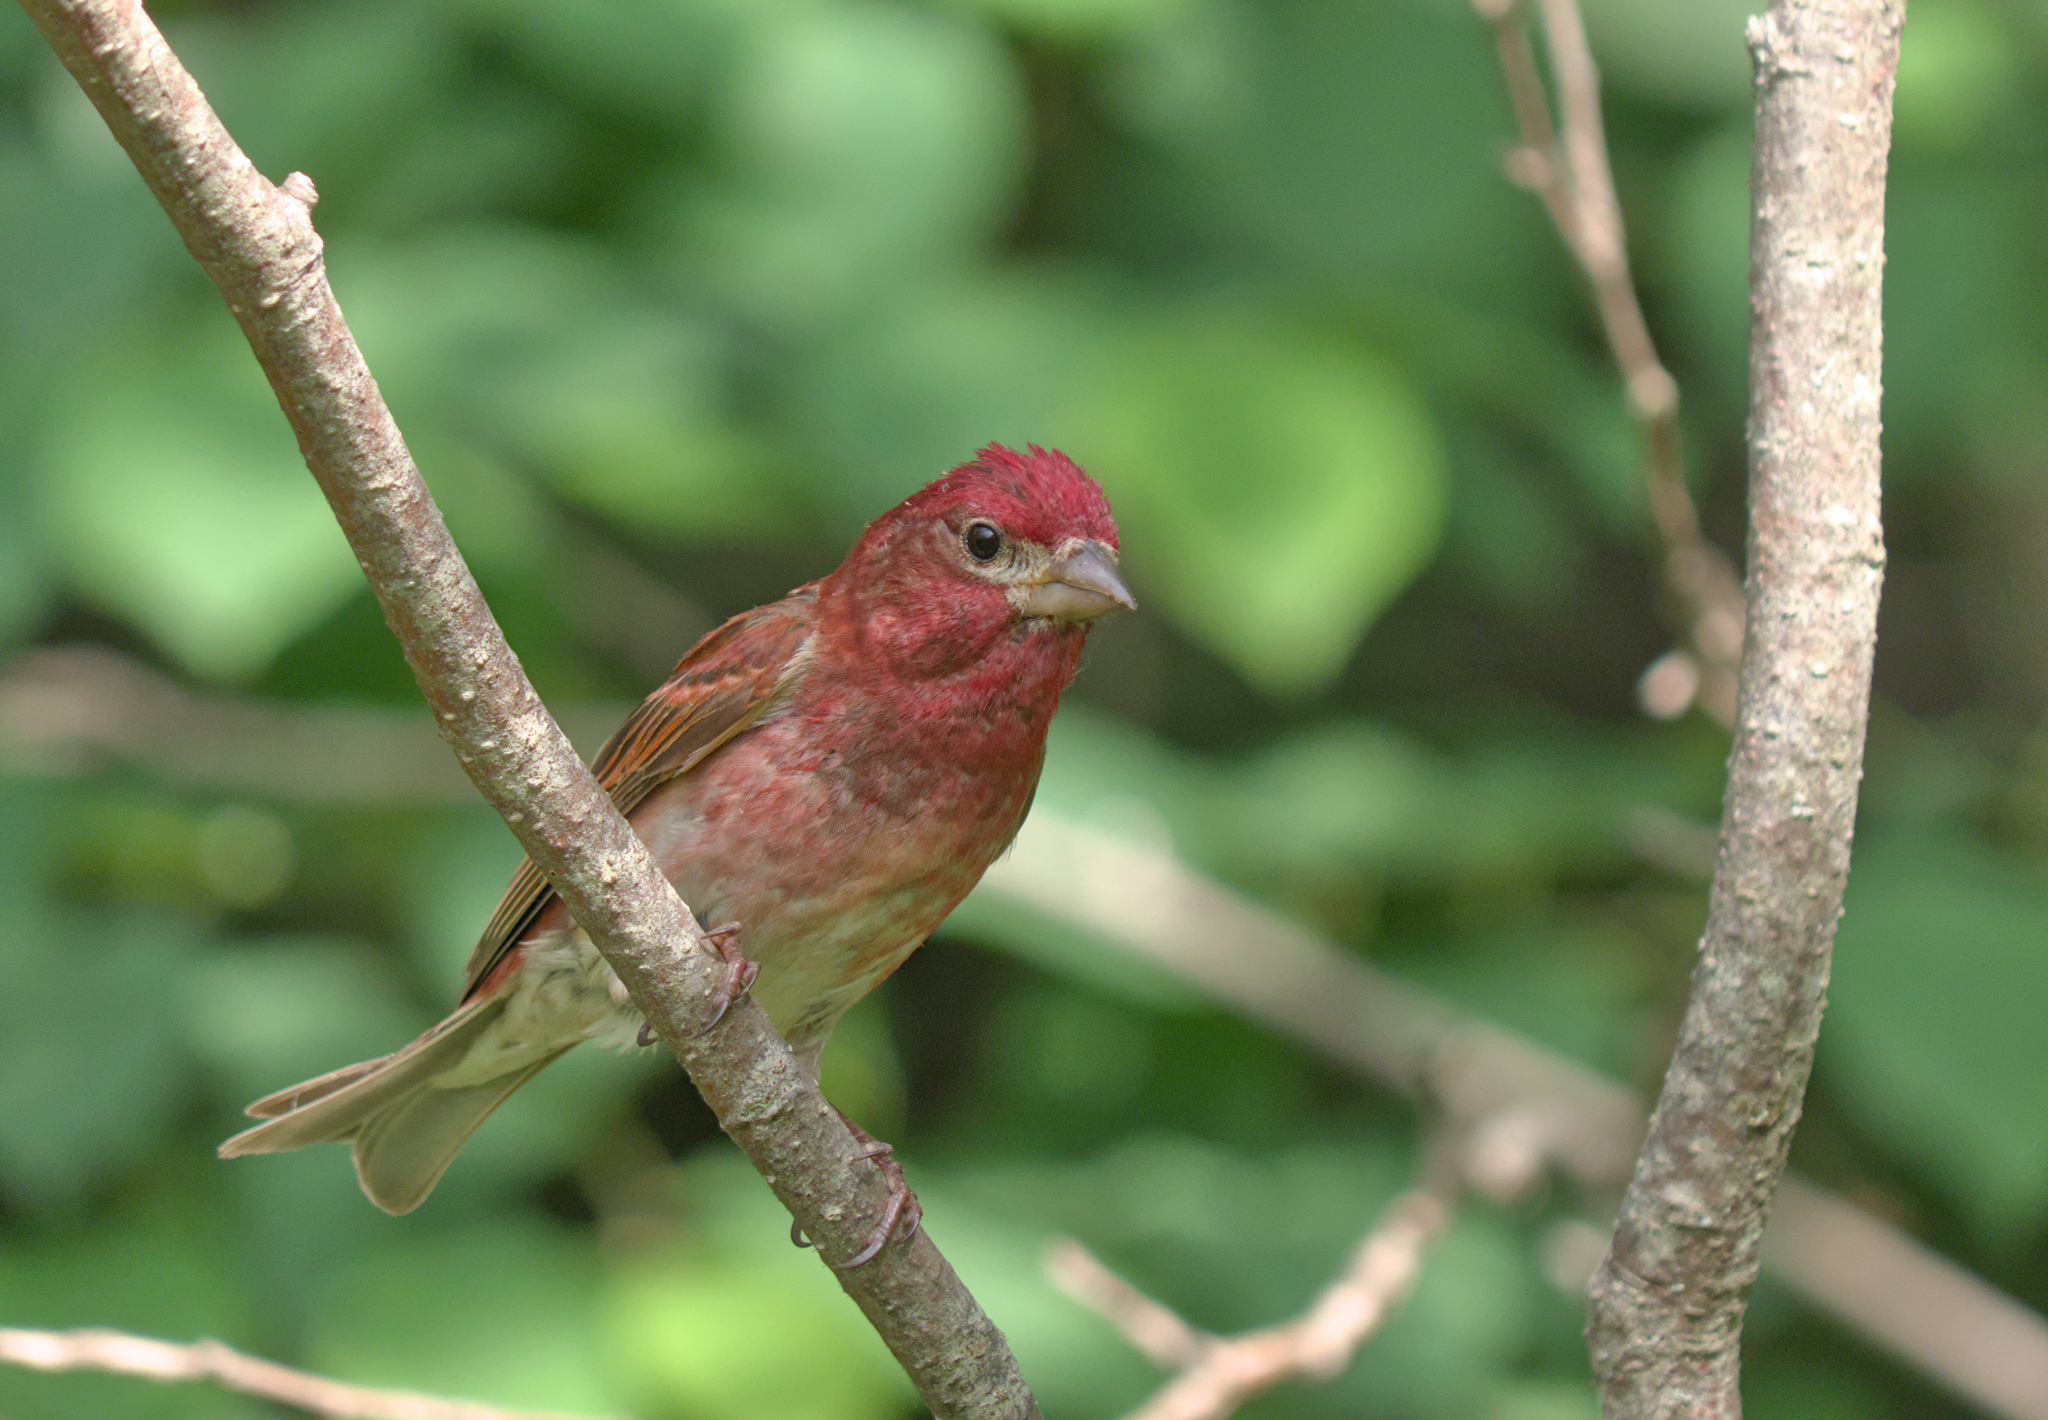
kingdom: Animalia
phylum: Chordata
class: Aves
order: Passeriformes
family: Fringillidae
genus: Haemorhous
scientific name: Haemorhous purpureus
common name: Purple finch
